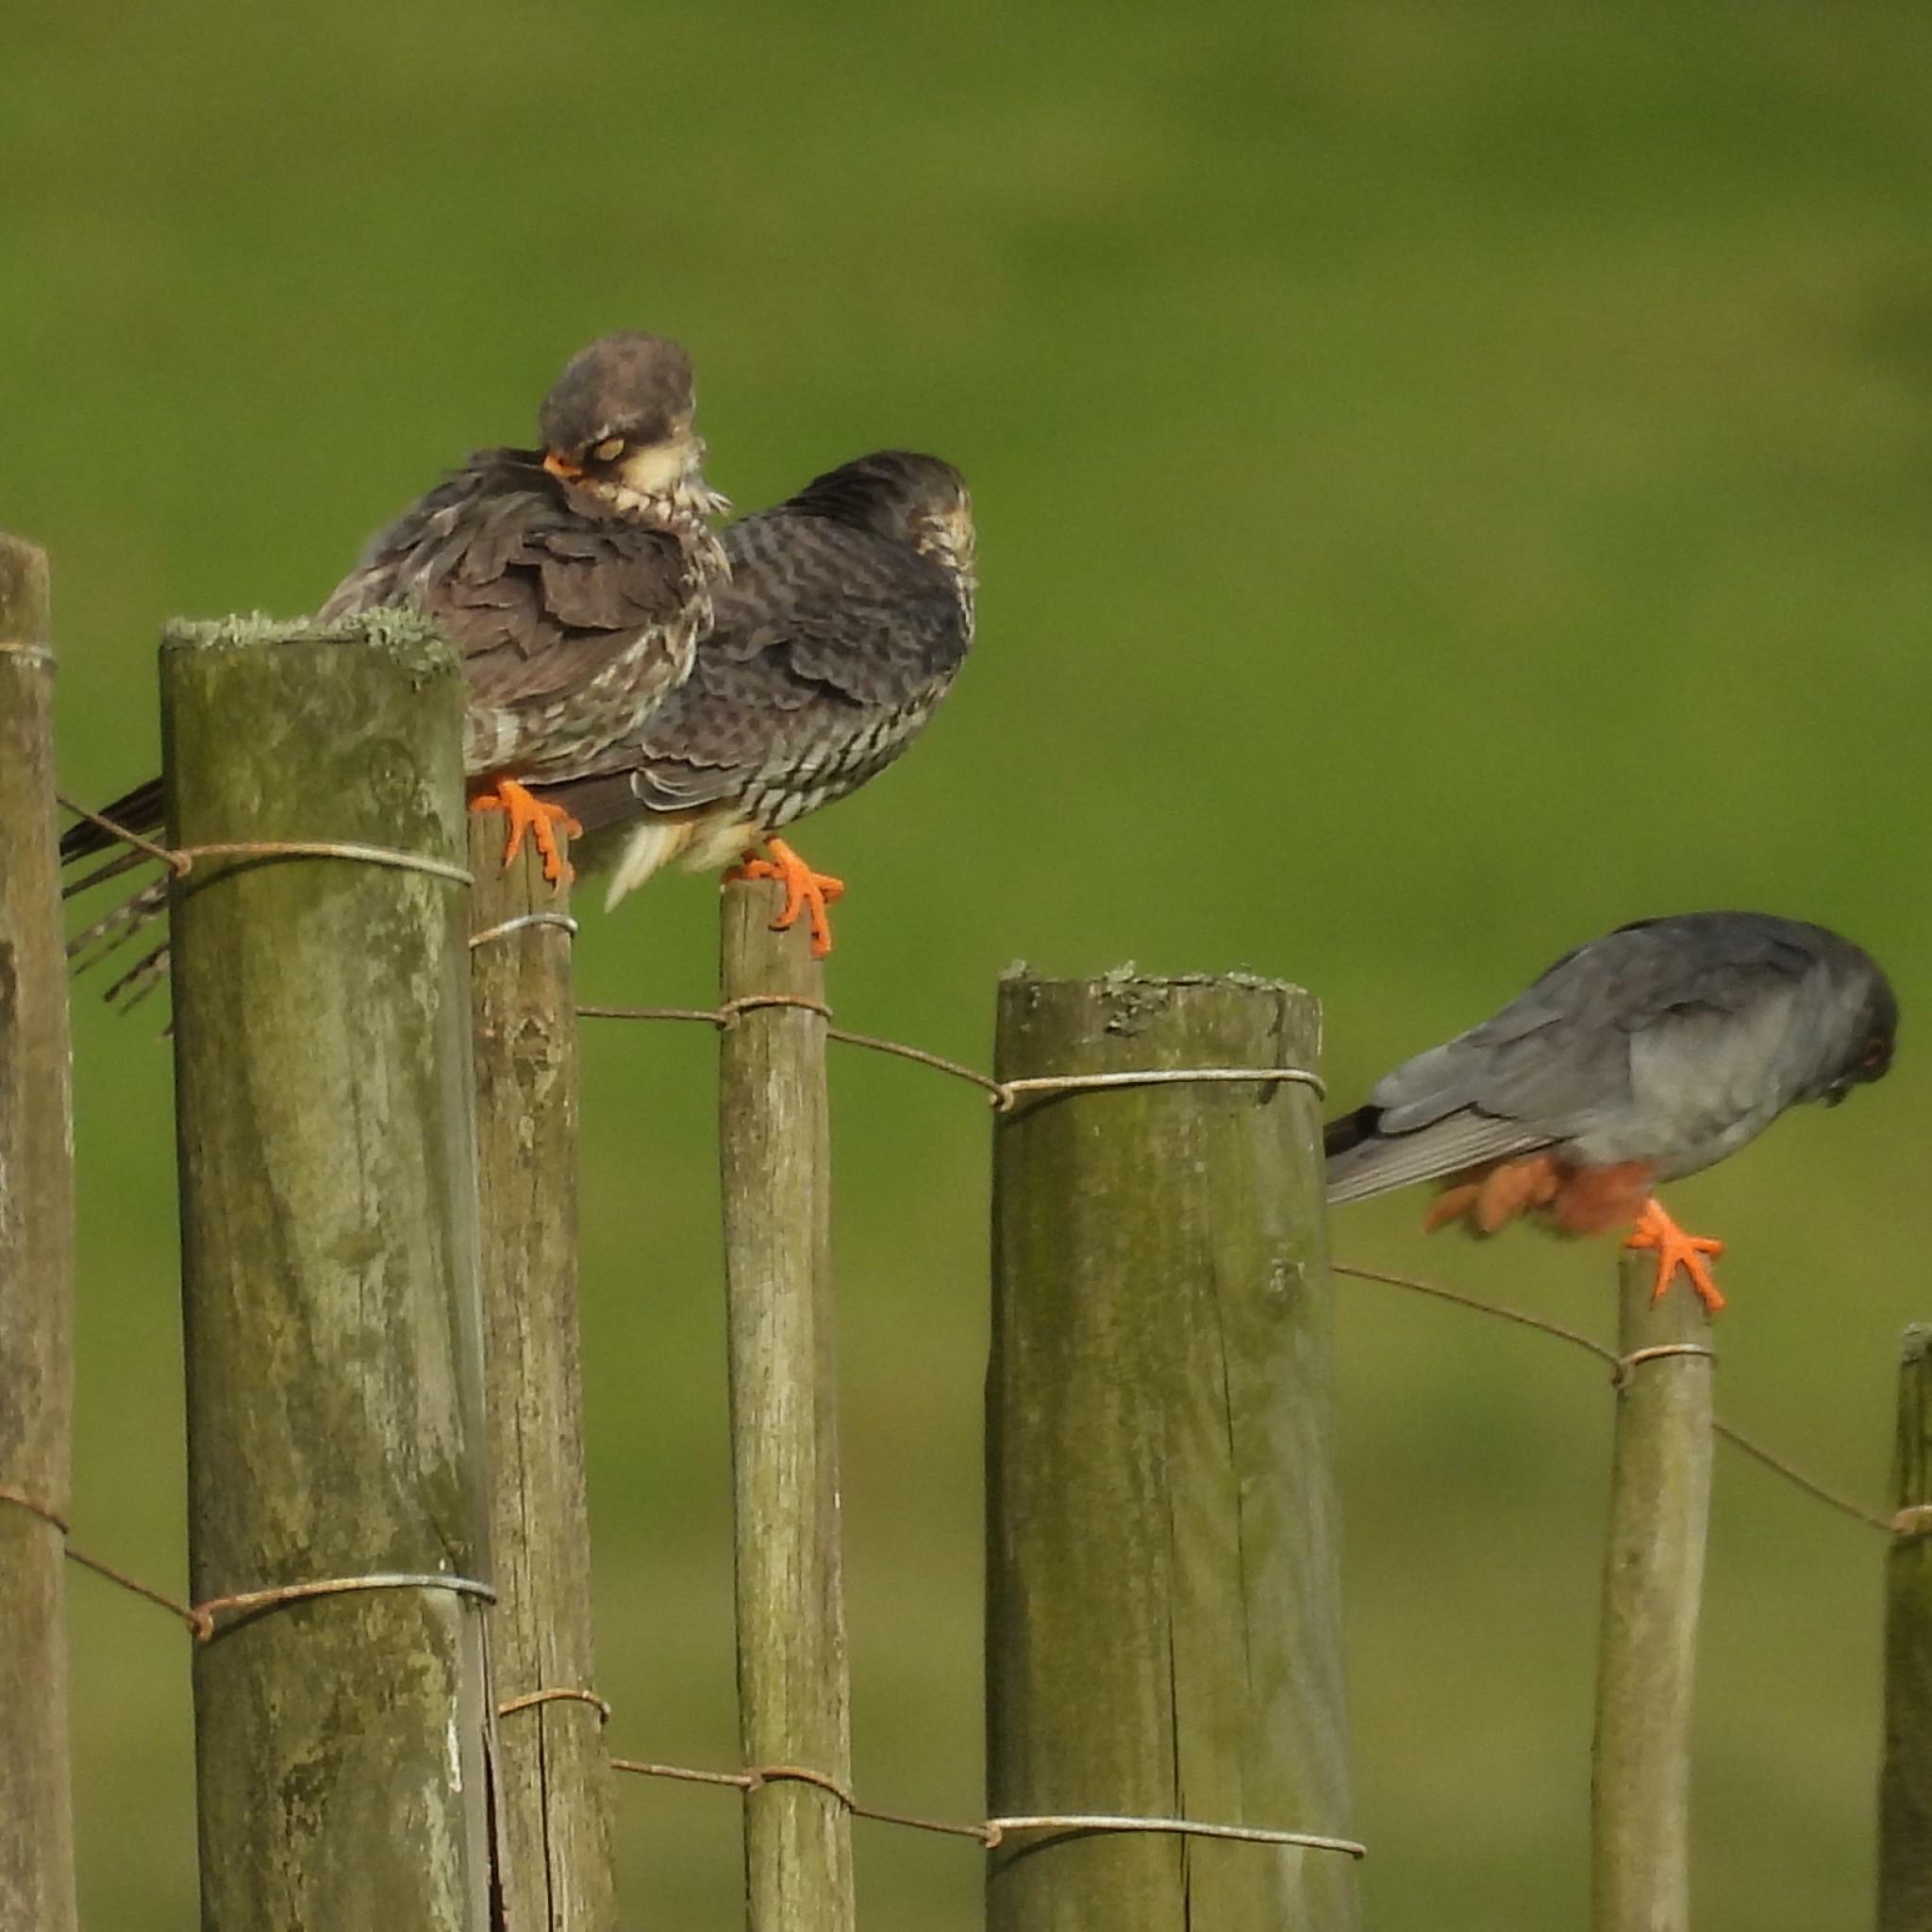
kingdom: Animalia
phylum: Chordata
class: Aves
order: Falconiformes
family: Falconidae
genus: Falco
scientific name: Falco amurensis
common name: Amur falcon
